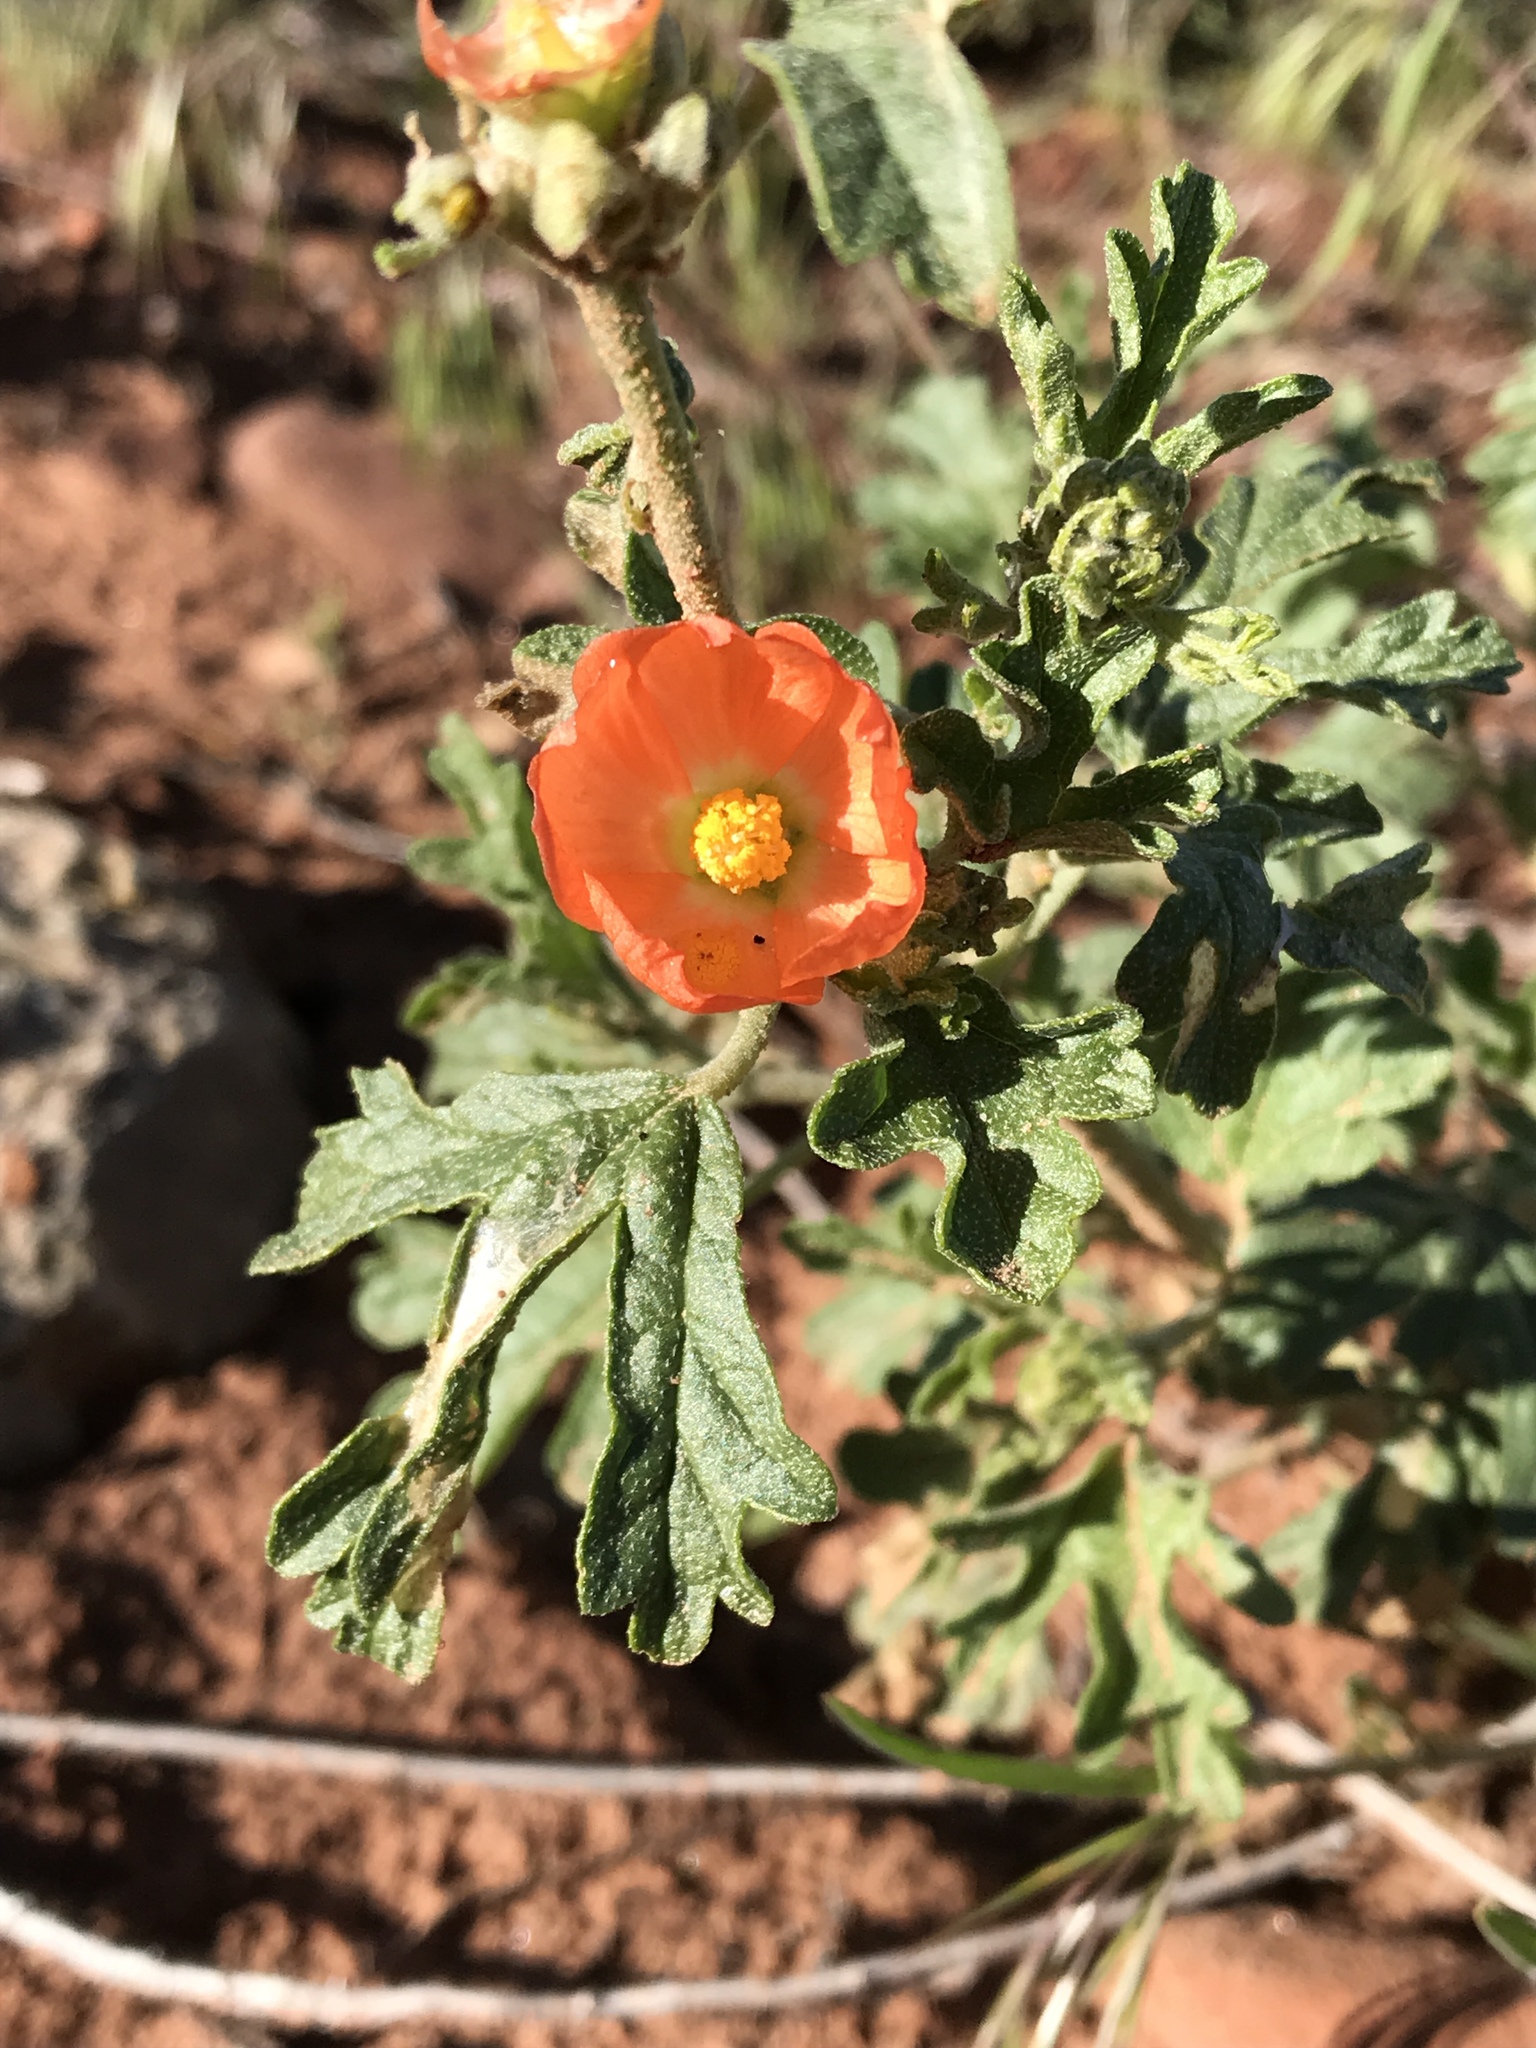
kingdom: Plantae
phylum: Tracheophyta
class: Magnoliopsida
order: Malvales
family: Malvaceae
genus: Sphaeralcea
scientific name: Sphaeralcea grossulariifolia
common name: Current-leaf globe-mallow
